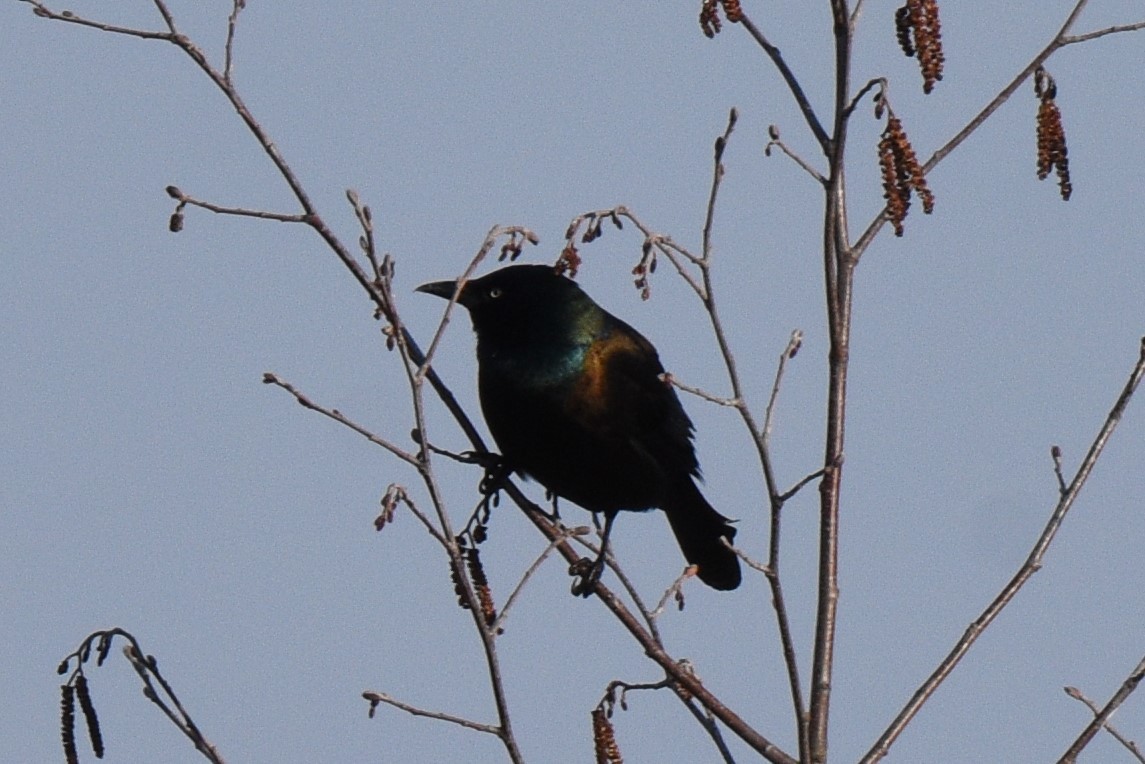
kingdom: Animalia
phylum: Chordata
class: Aves
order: Passeriformes
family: Icteridae
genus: Quiscalus
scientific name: Quiscalus quiscula
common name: Common grackle
